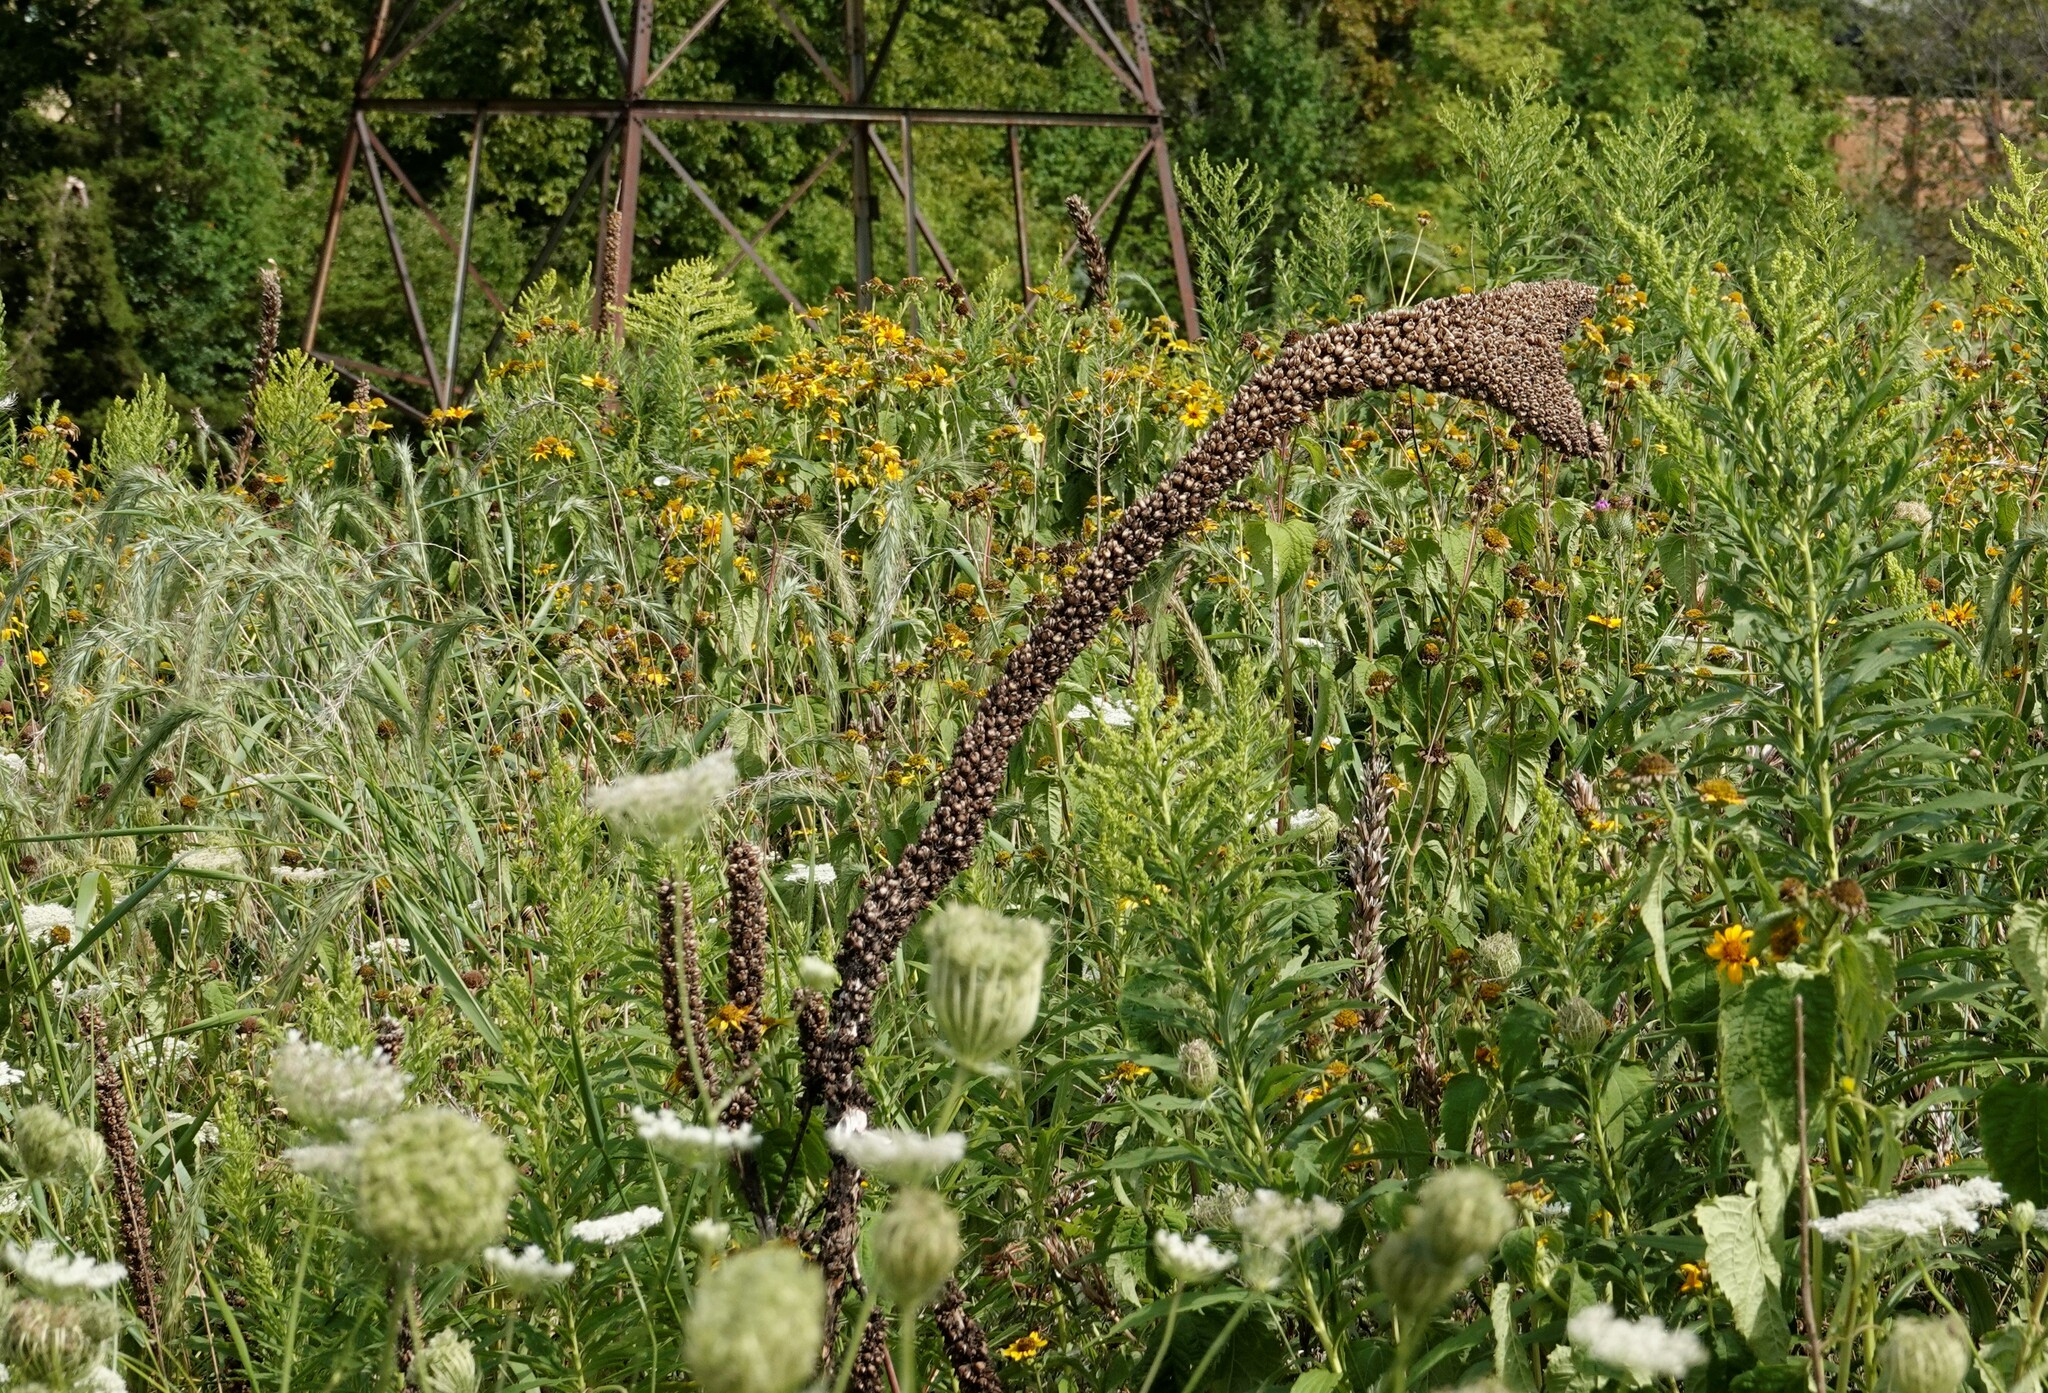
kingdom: Plantae
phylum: Tracheophyta
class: Magnoliopsida
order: Lamiales
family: Scrophulariaceae
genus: Verbascum
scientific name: Verbascum thapsus
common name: Common mullein
